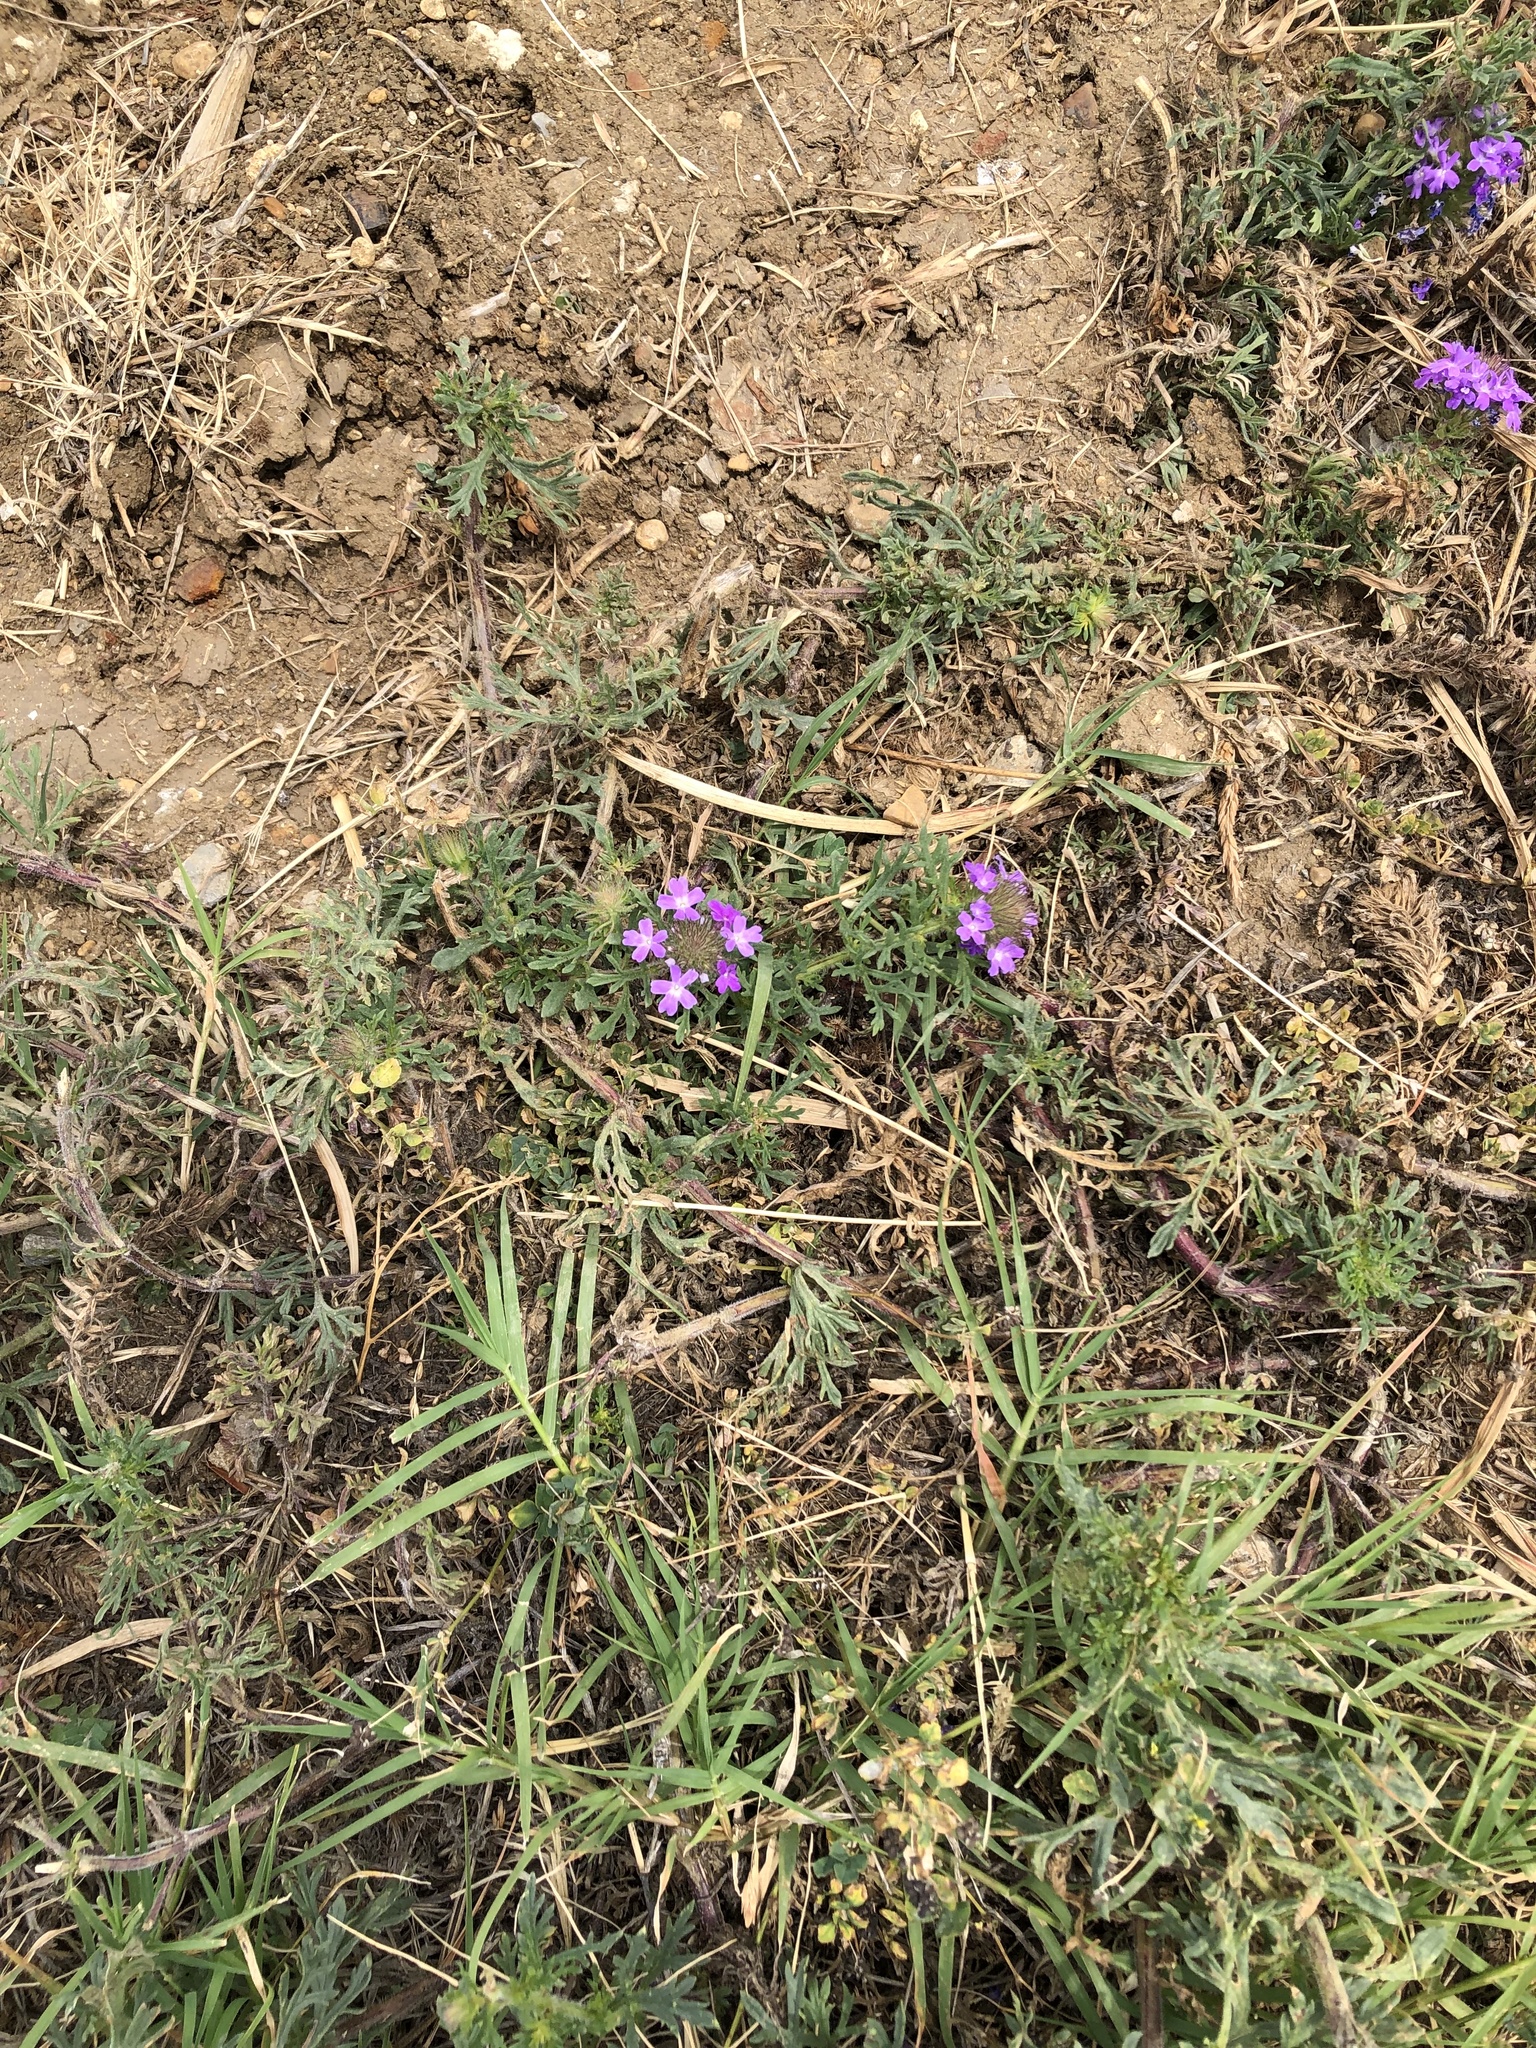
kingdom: Plantae
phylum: Tracheophyta
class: Magnoliopsida
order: Lamiales
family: Verbenaceae
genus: Verbena
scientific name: Verbena bipinnatifida
